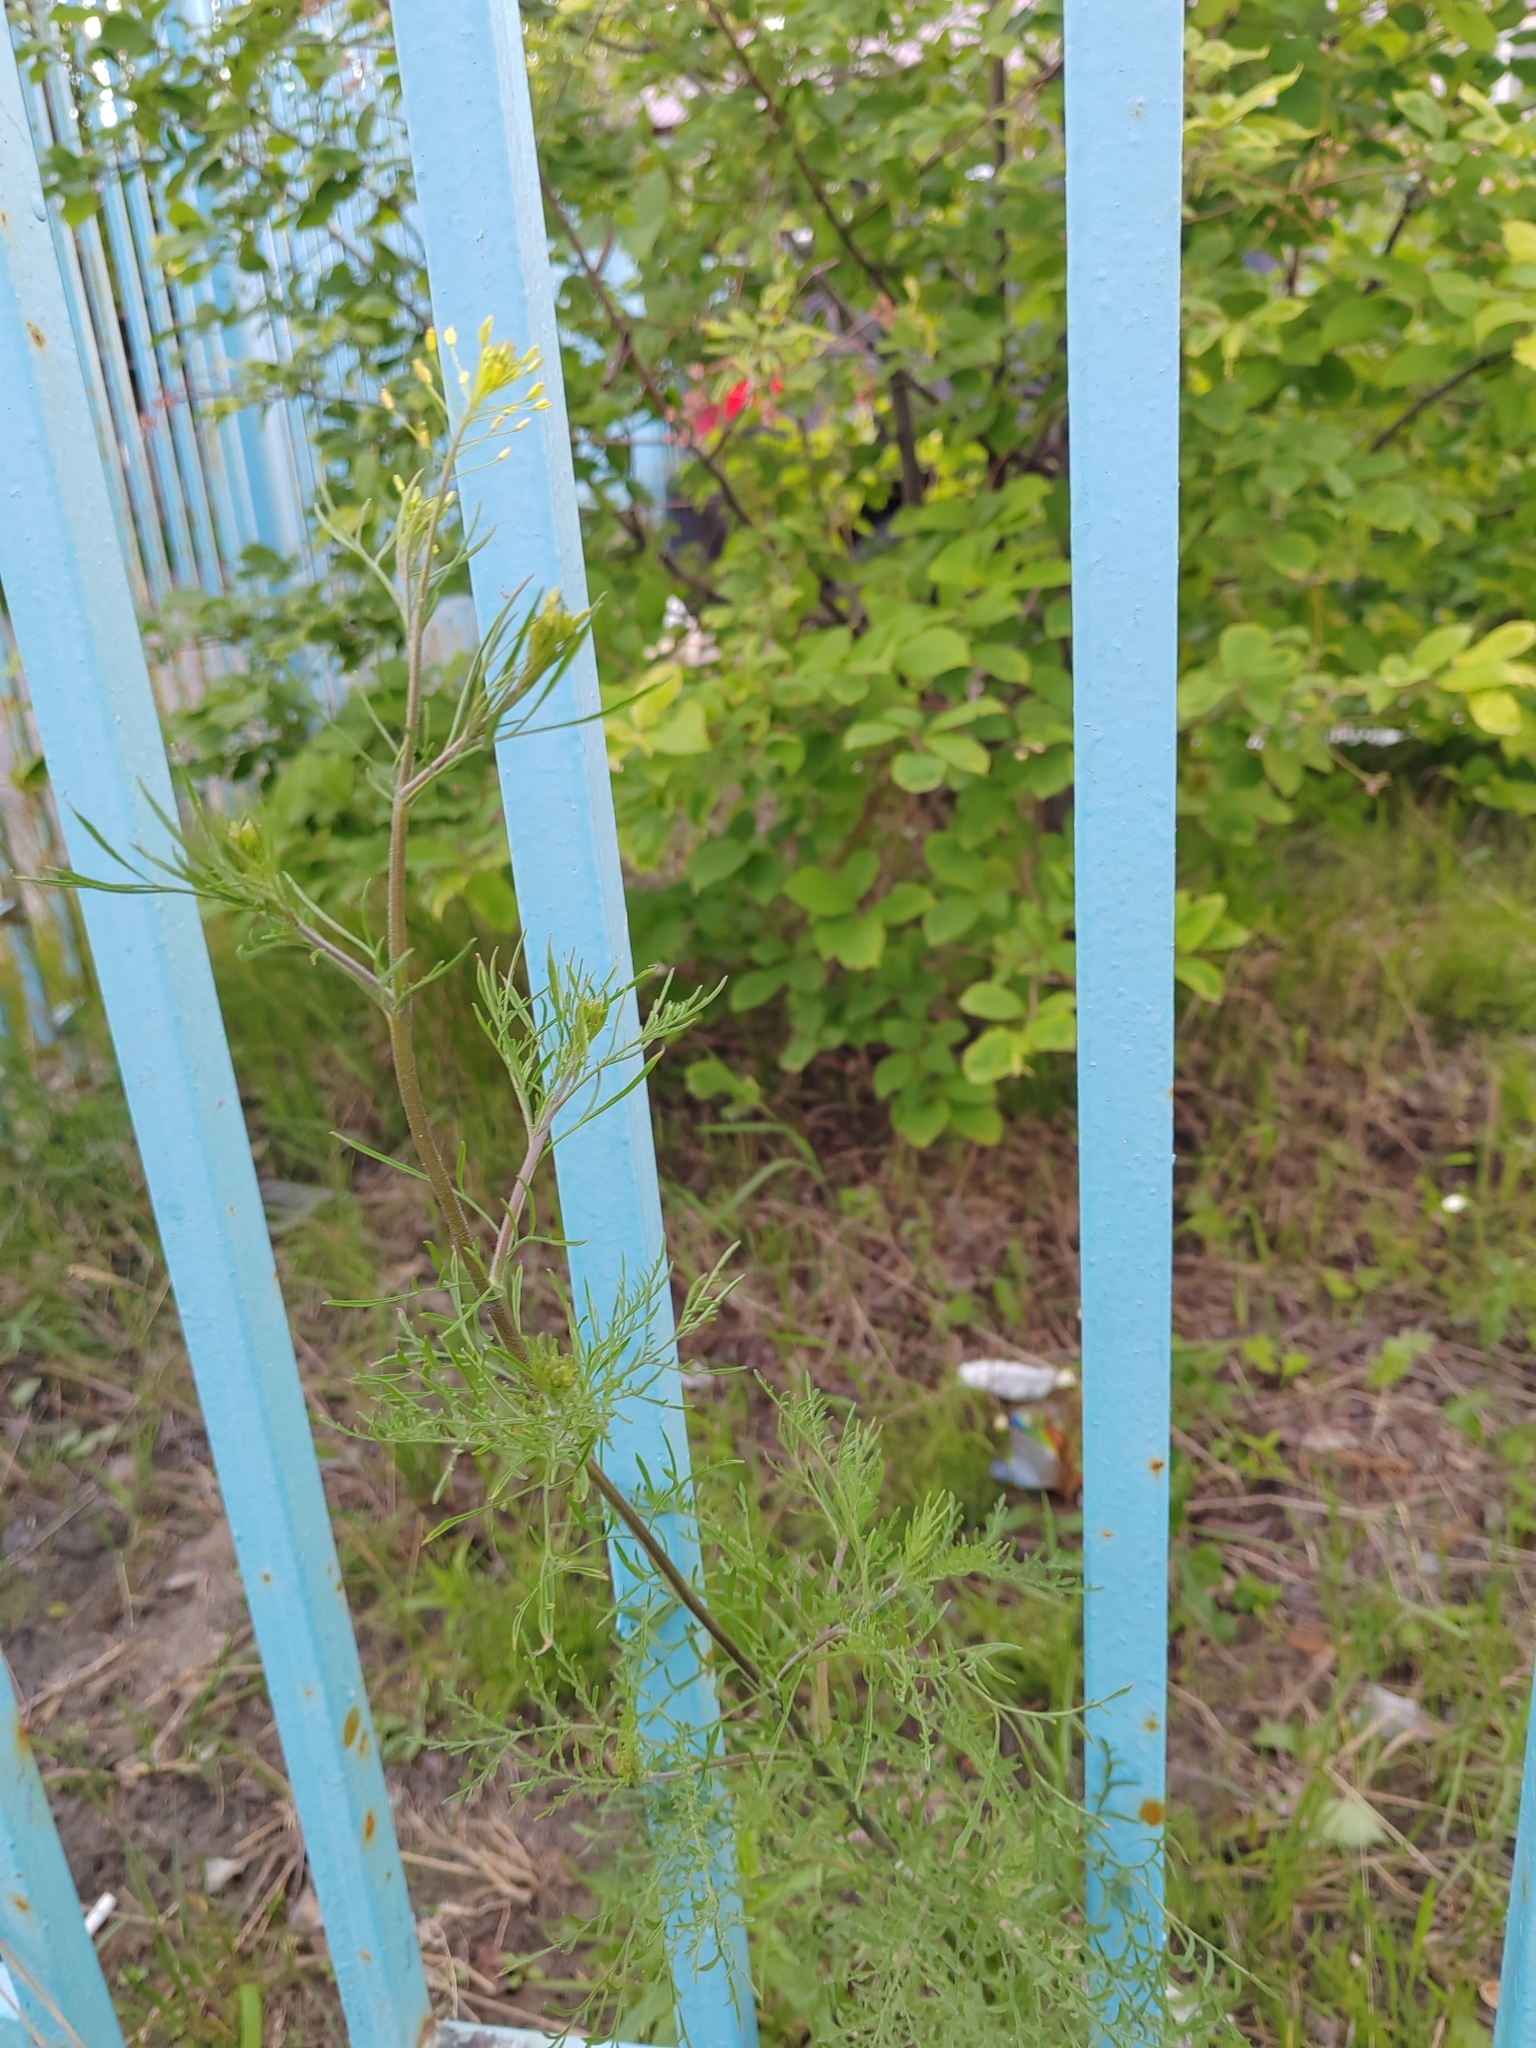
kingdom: Plantae
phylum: Tracheophyta
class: Magnoliopsida
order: Brassicales
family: Brassicaceae
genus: Descurainia
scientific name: Descurainia sophia
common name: Flixweed
